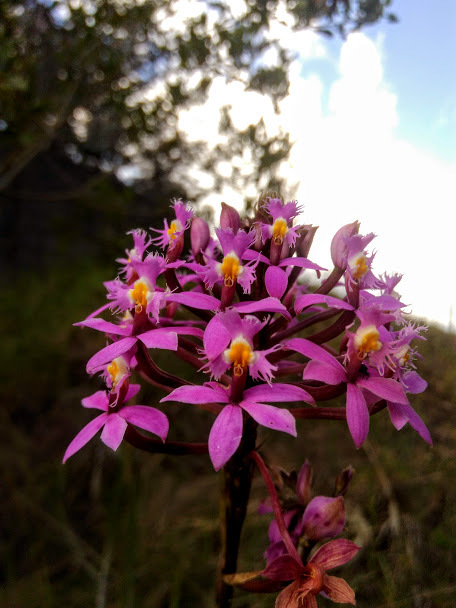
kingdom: Plantae
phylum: Tracheophyta
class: Liliopsida
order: Asparagales
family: Orchidaceae
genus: Epidendrum
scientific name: Epidendrum arachnoglossum
